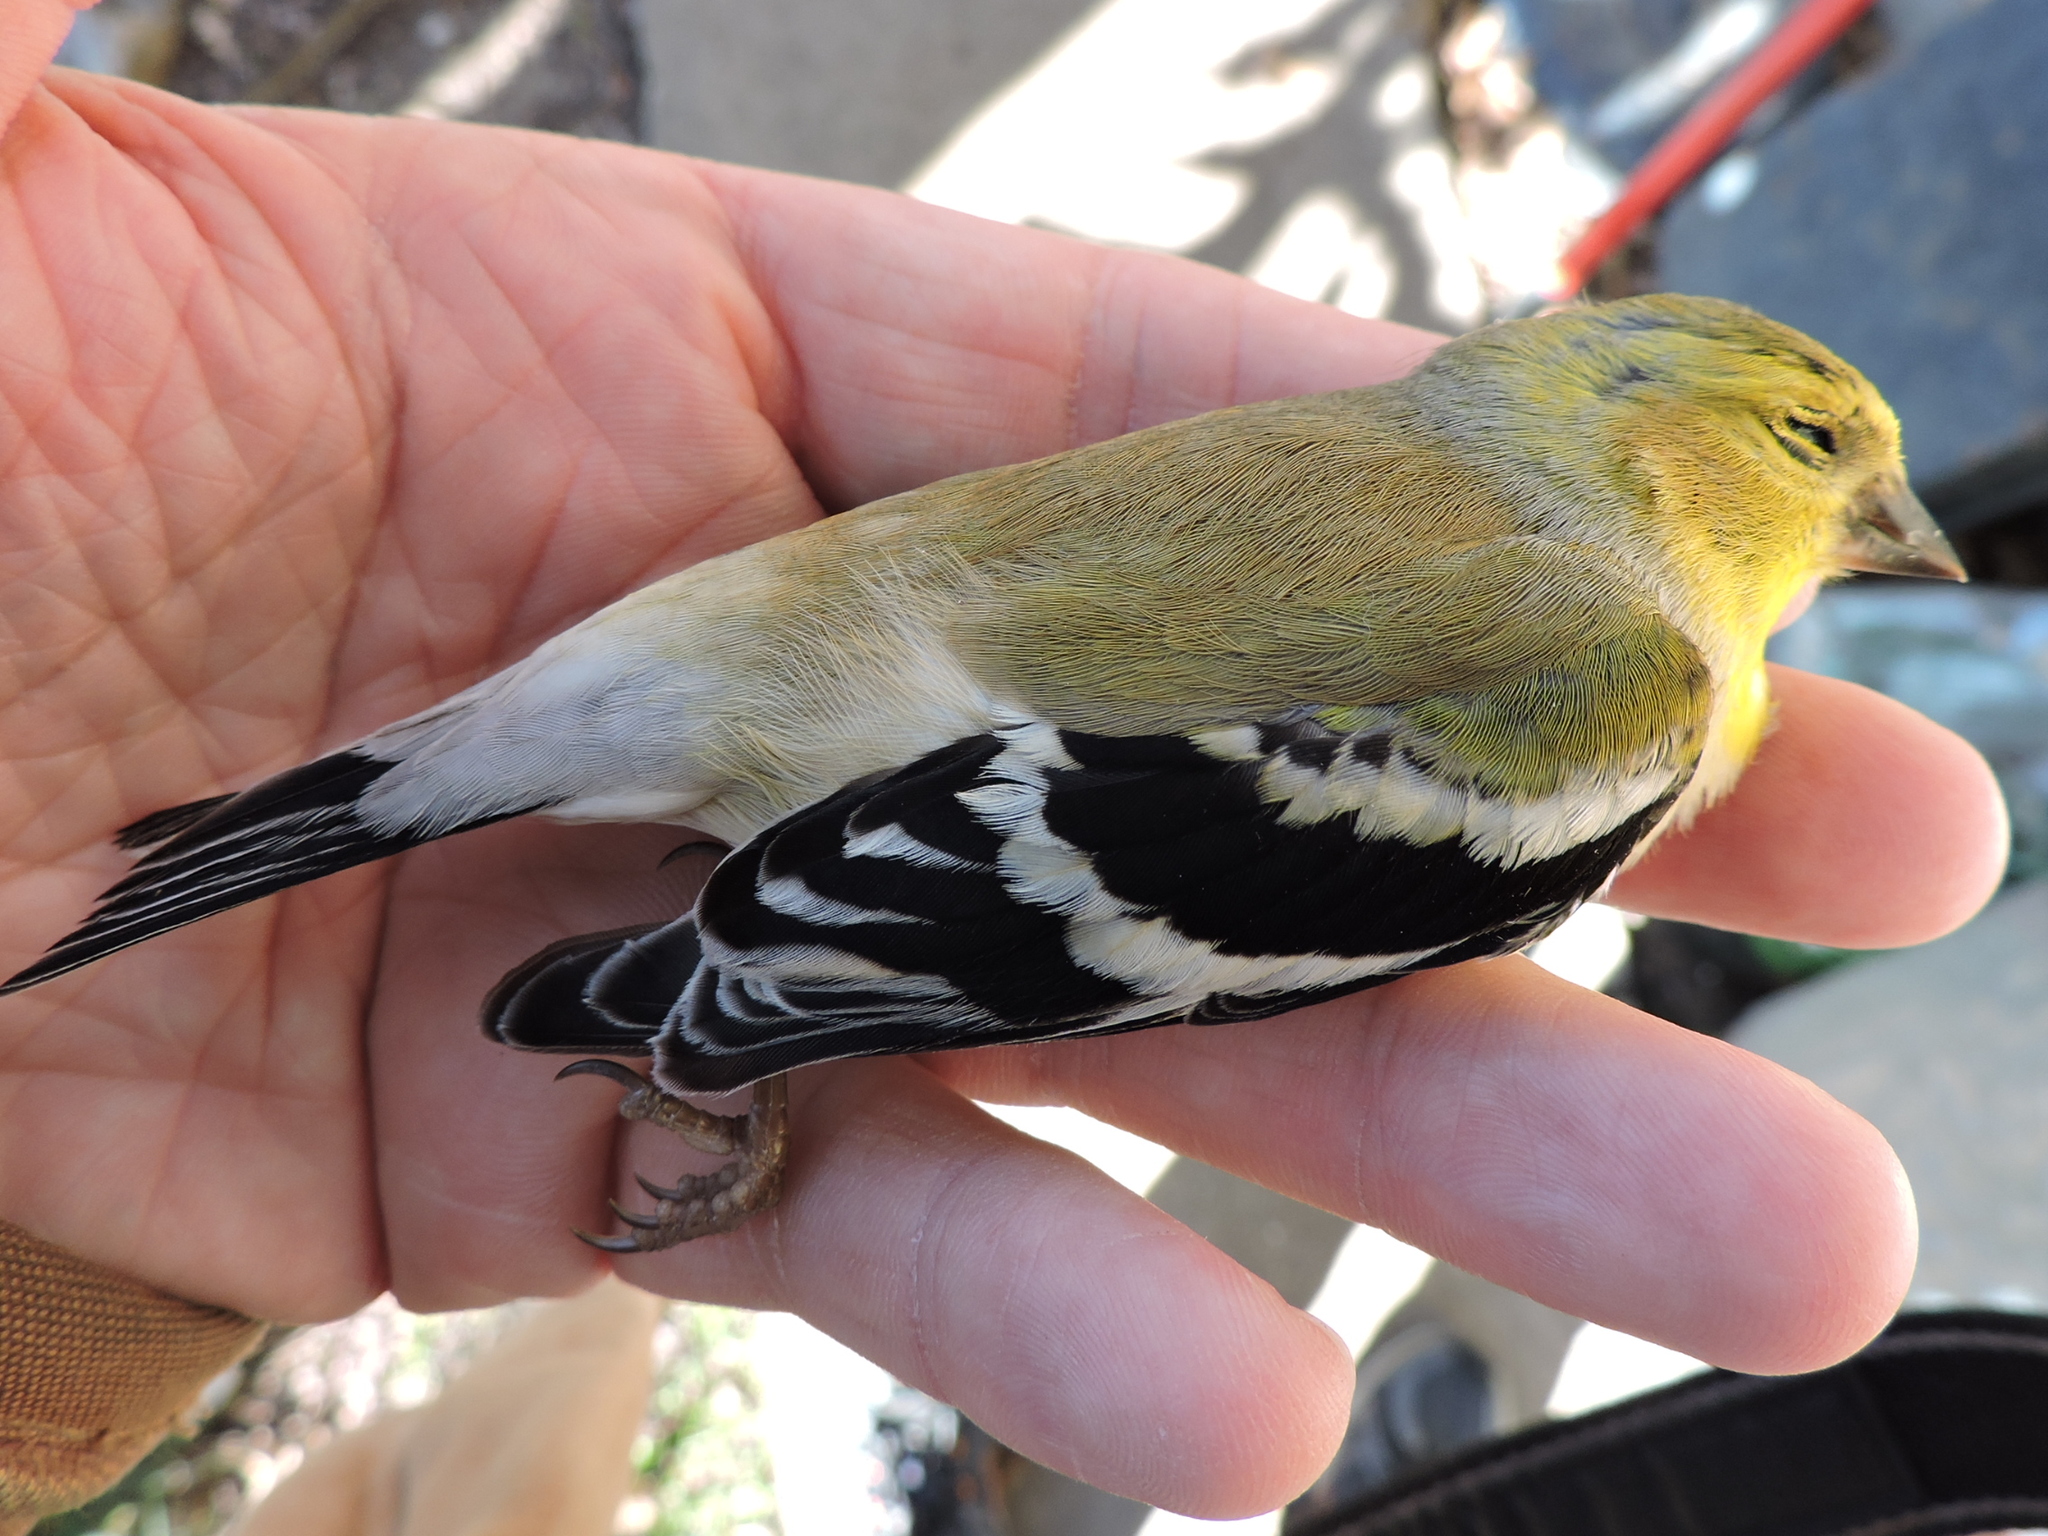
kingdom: Animalia
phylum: Chordata
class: Aves
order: Passeriformes
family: Fringillidae
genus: Spinus
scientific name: Spinus tristis
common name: American goldfinch
